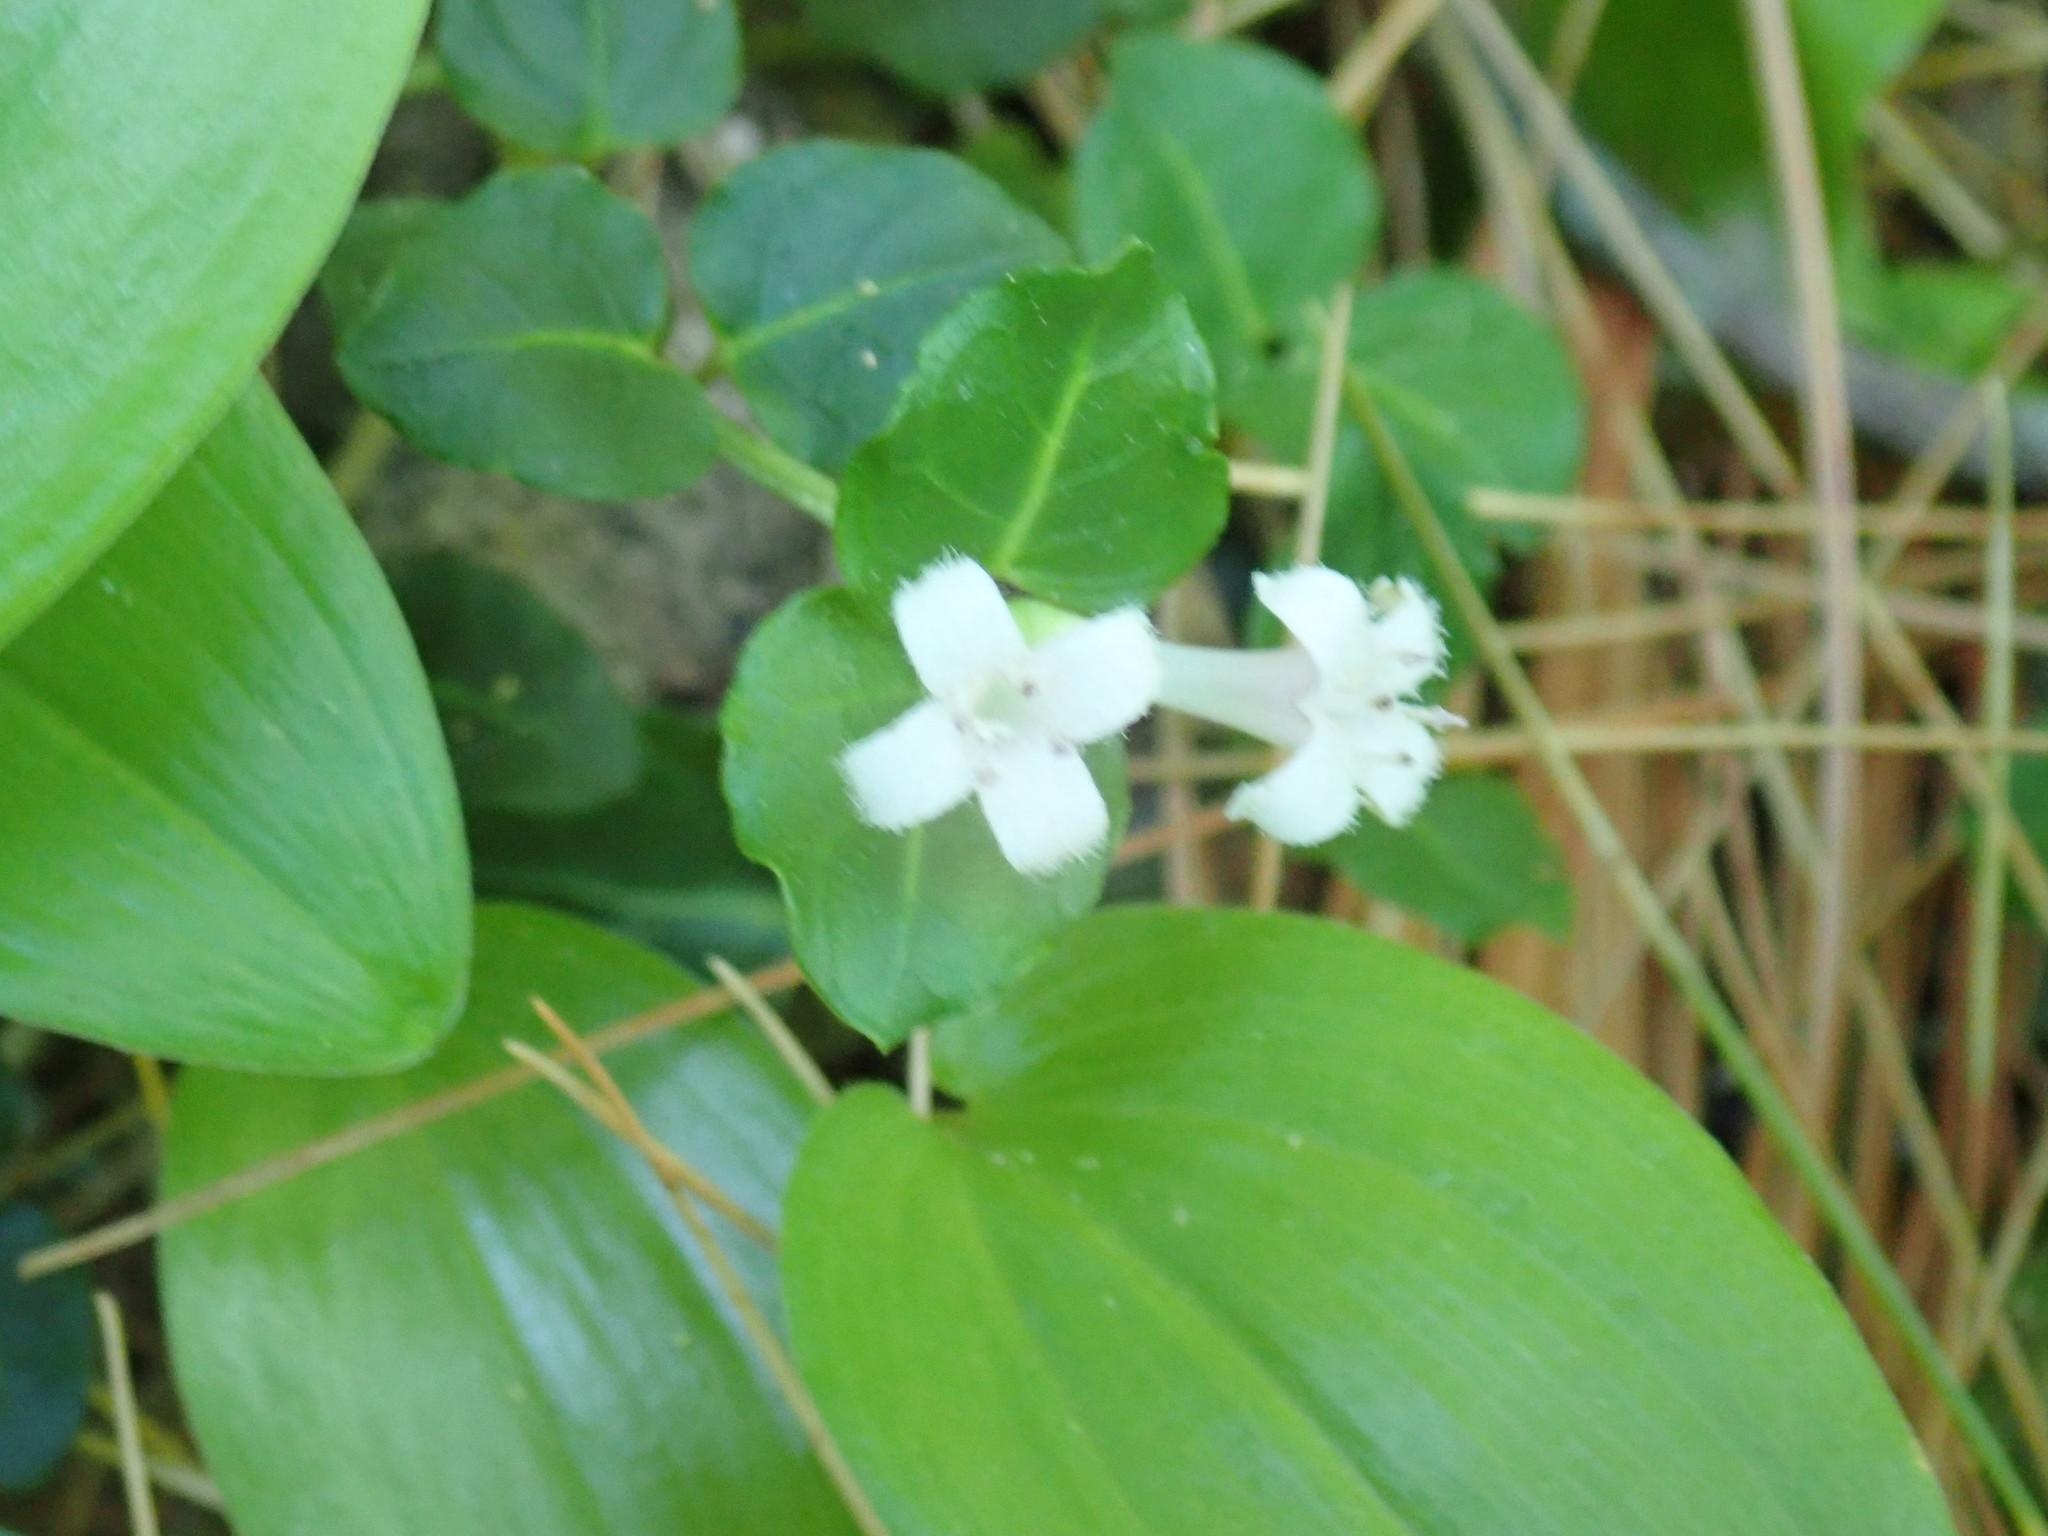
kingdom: Plantae
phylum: Tracheophyta
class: Magnoliopsida
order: Gentianales
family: Rubiaceae
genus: Mitchella
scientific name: Mitchella repens
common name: Partridge-berry
